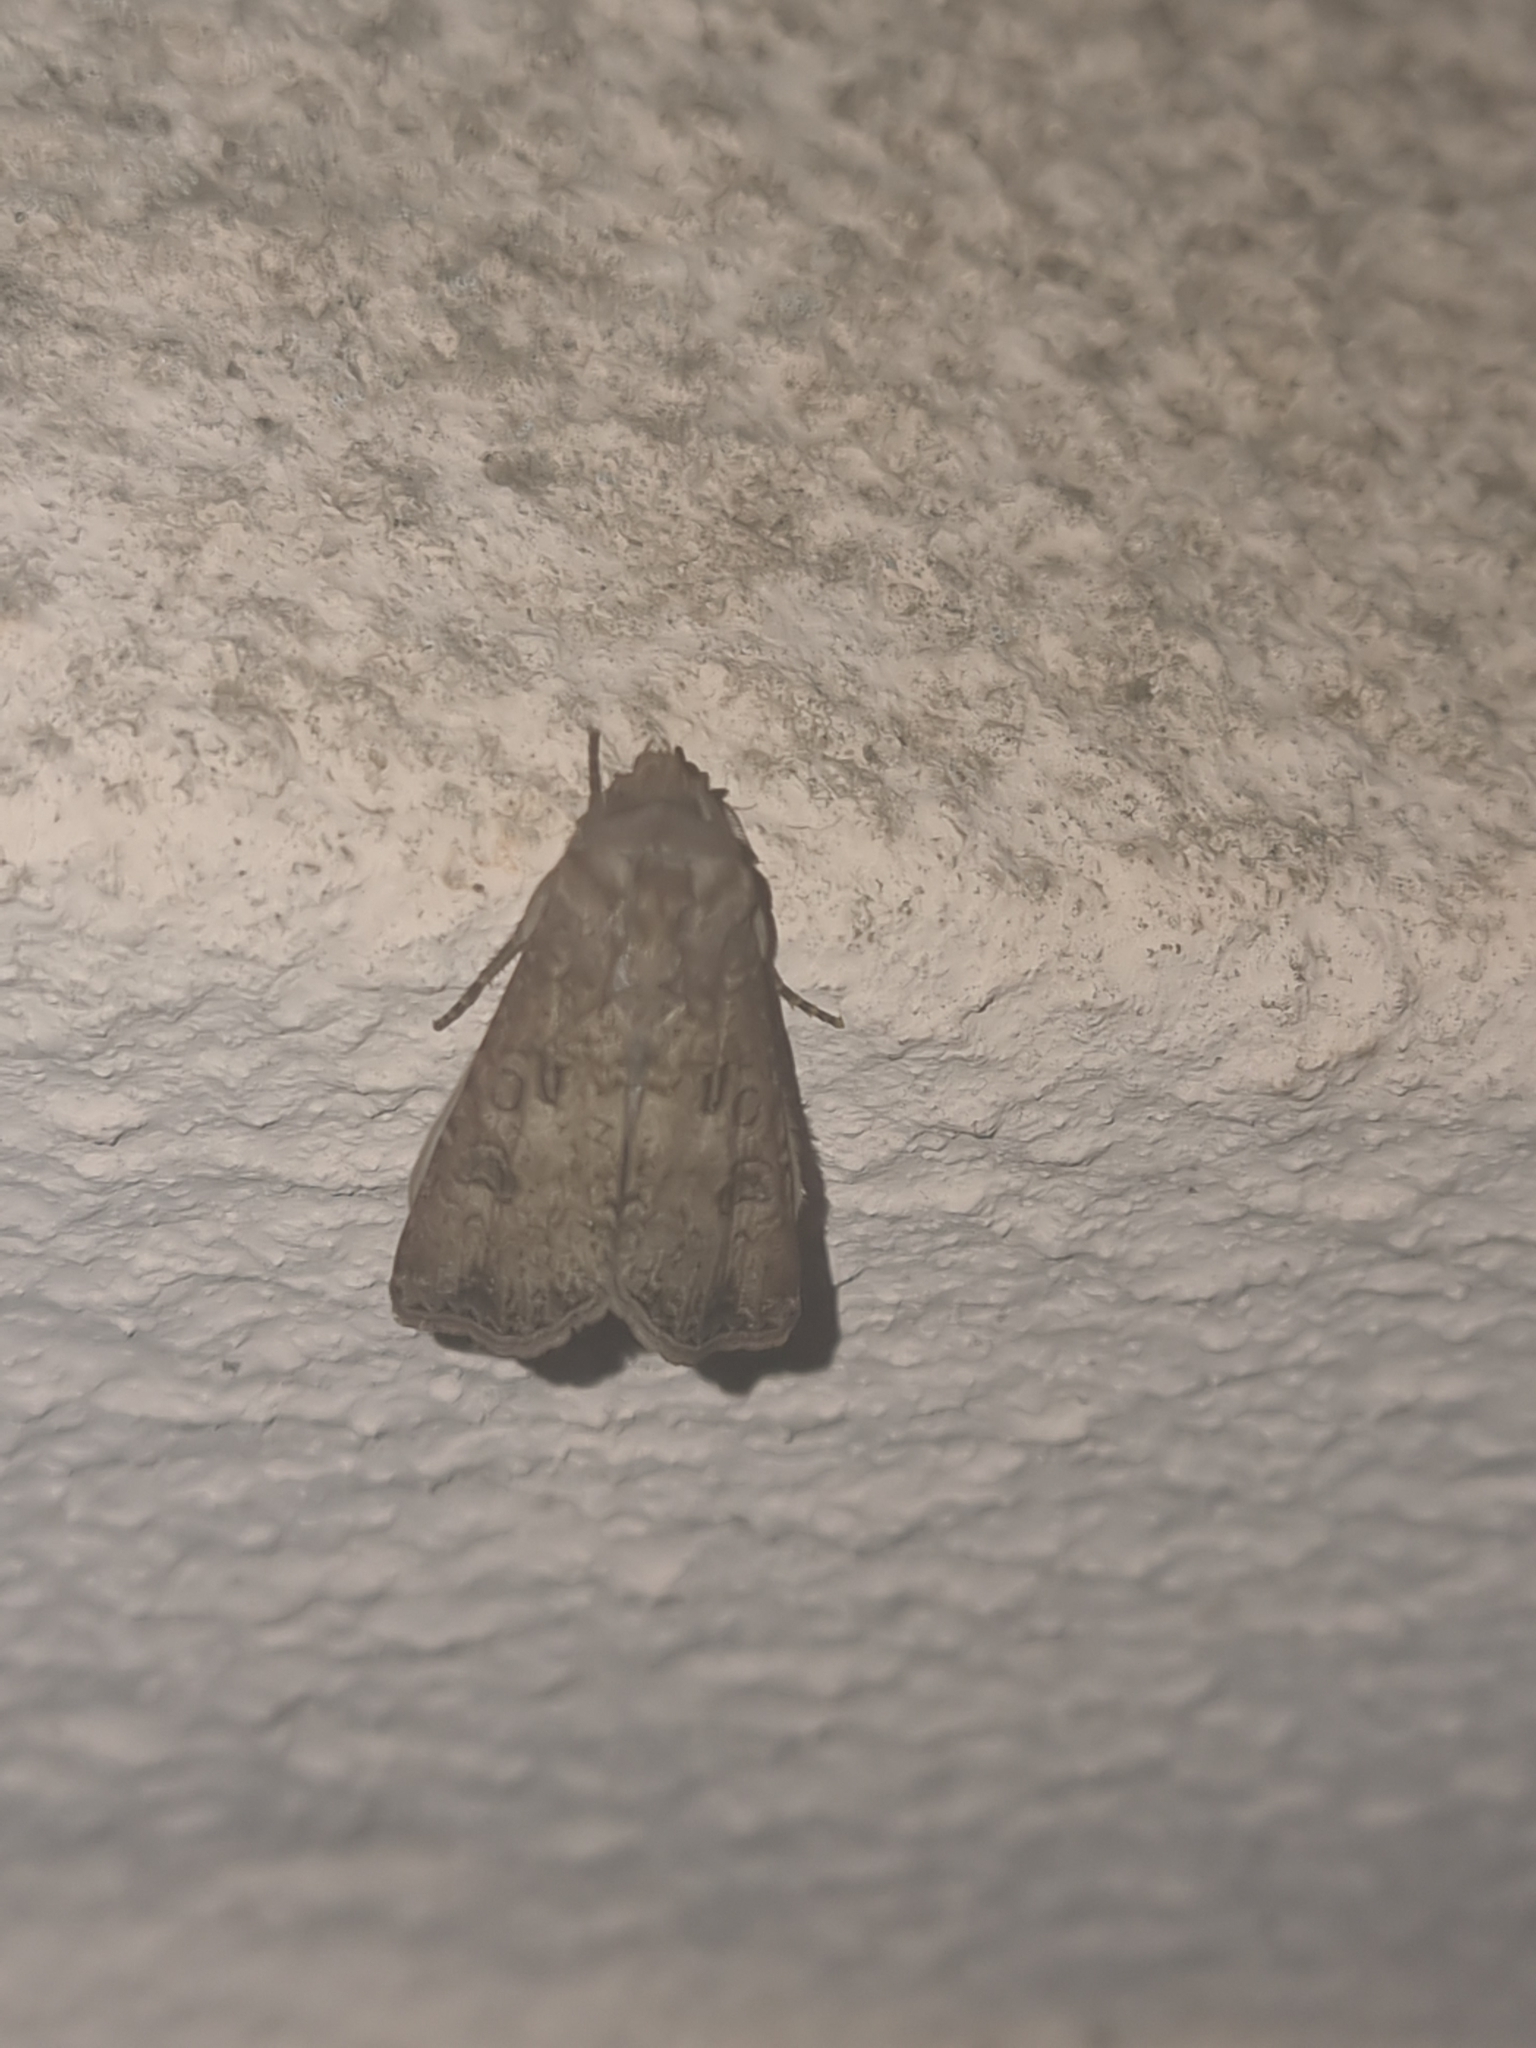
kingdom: Animalia
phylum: Arthropoda
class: Insecta
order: Lepidoptera
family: Noctuidae
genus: Agrotis
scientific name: Agrotis segetum
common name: Turnip moth
